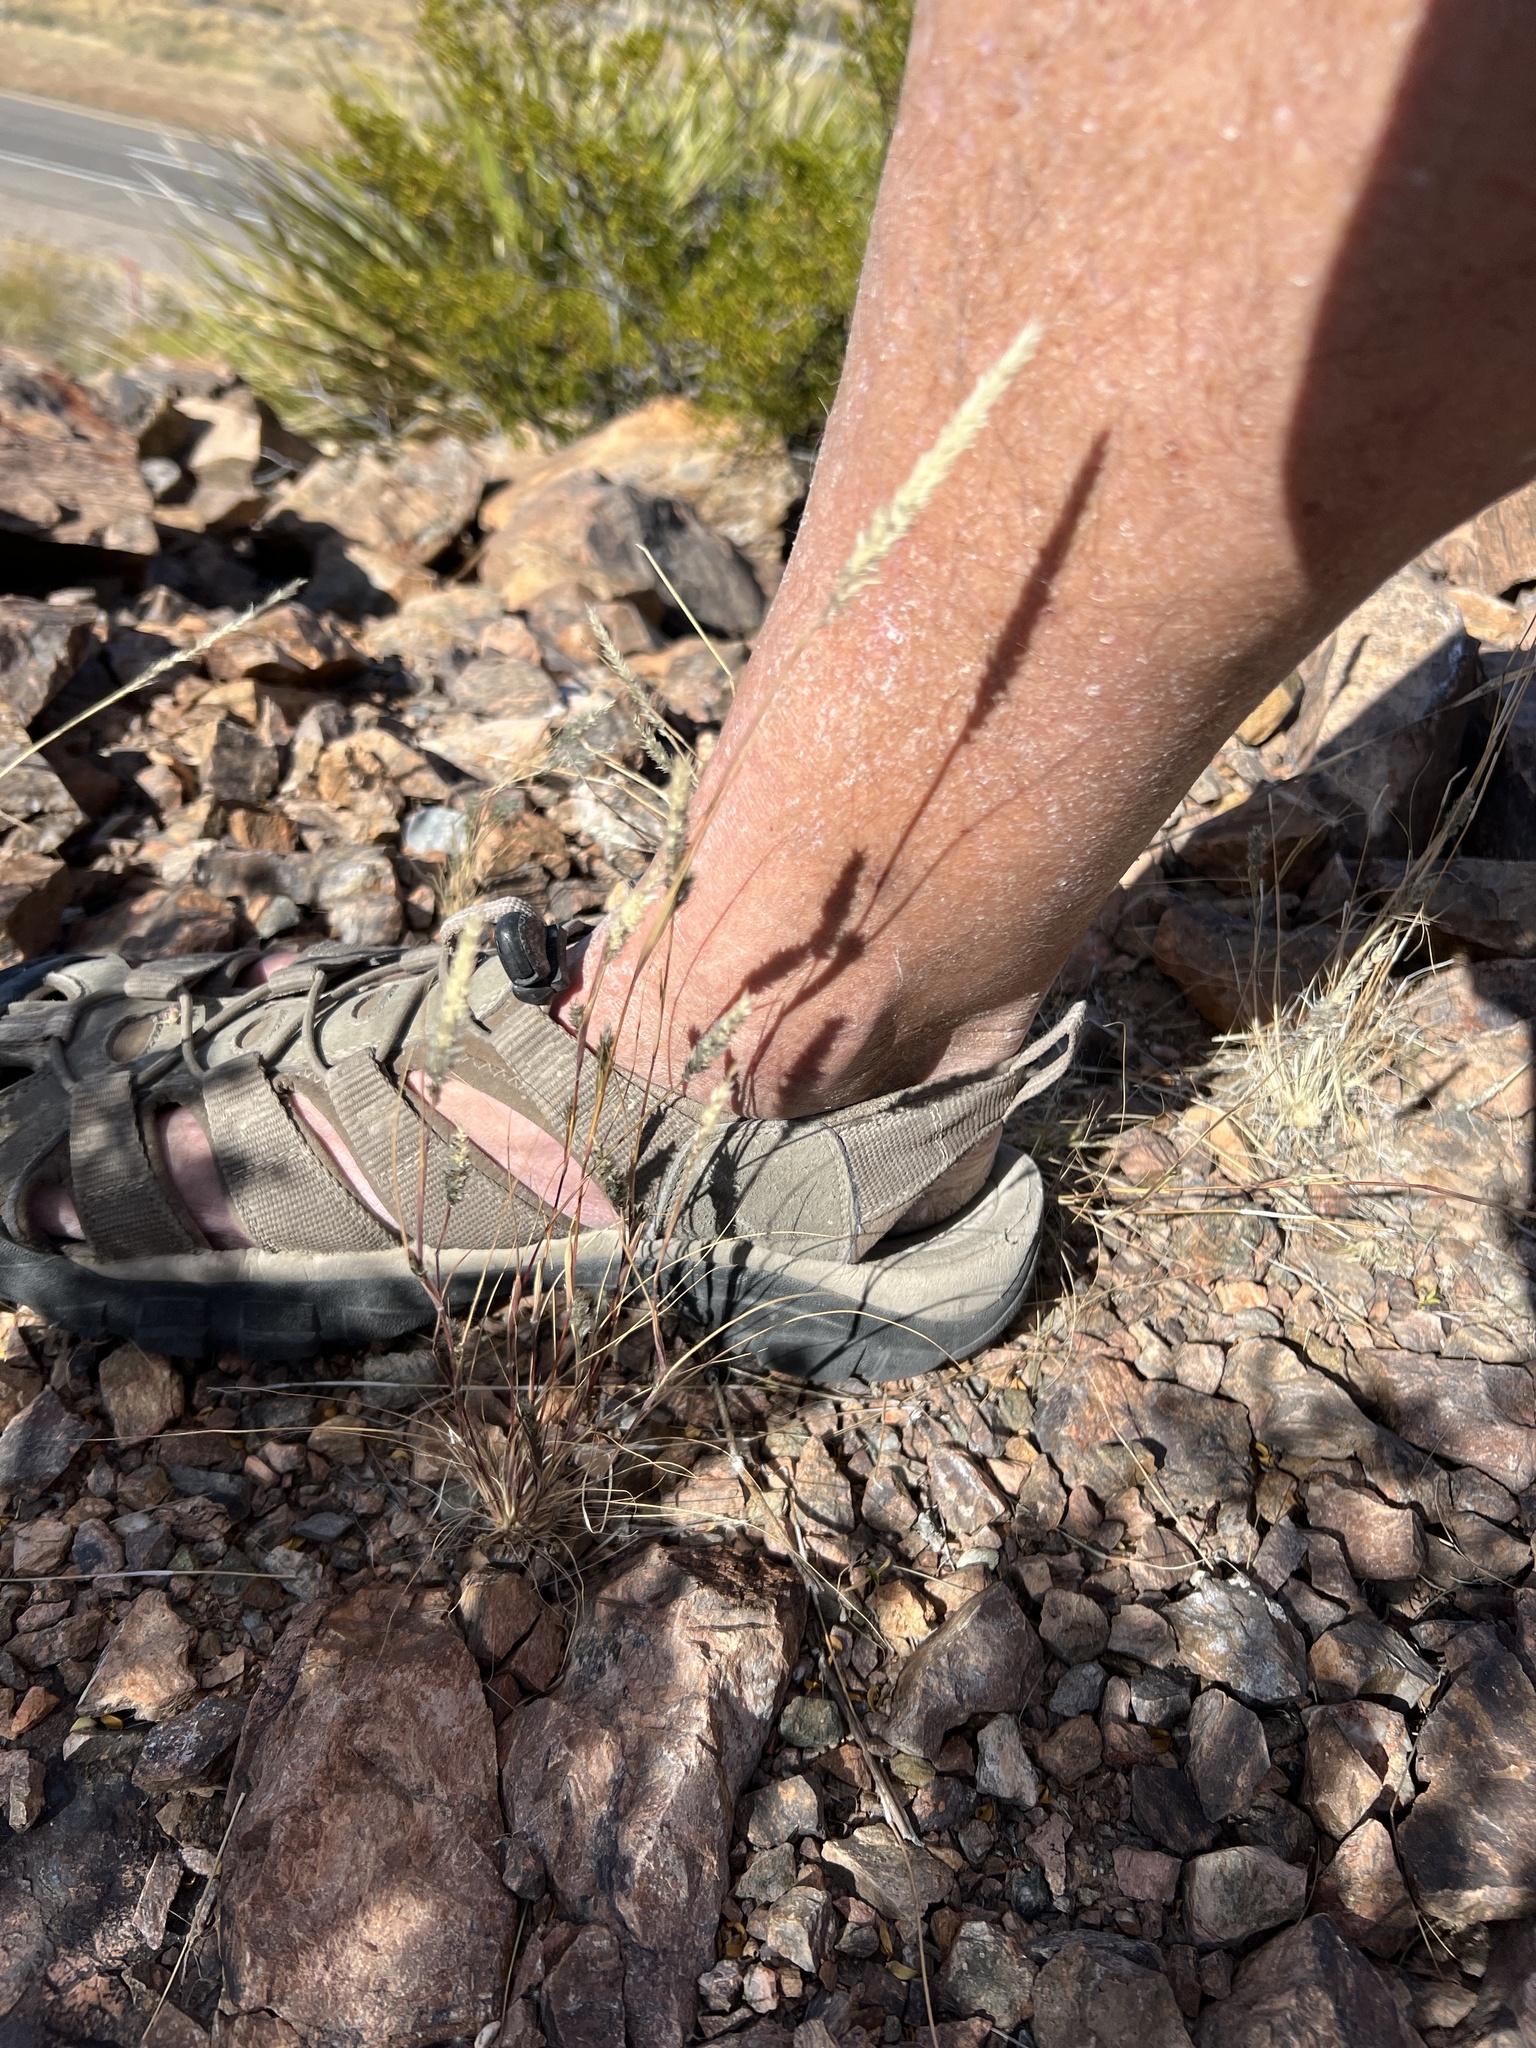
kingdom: Plantae
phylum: Tracheophyta
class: Liliopsida
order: Poales
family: Poaceae
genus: Enneapogon
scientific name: Enneapogon desvauxii
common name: Feather pappus grass
